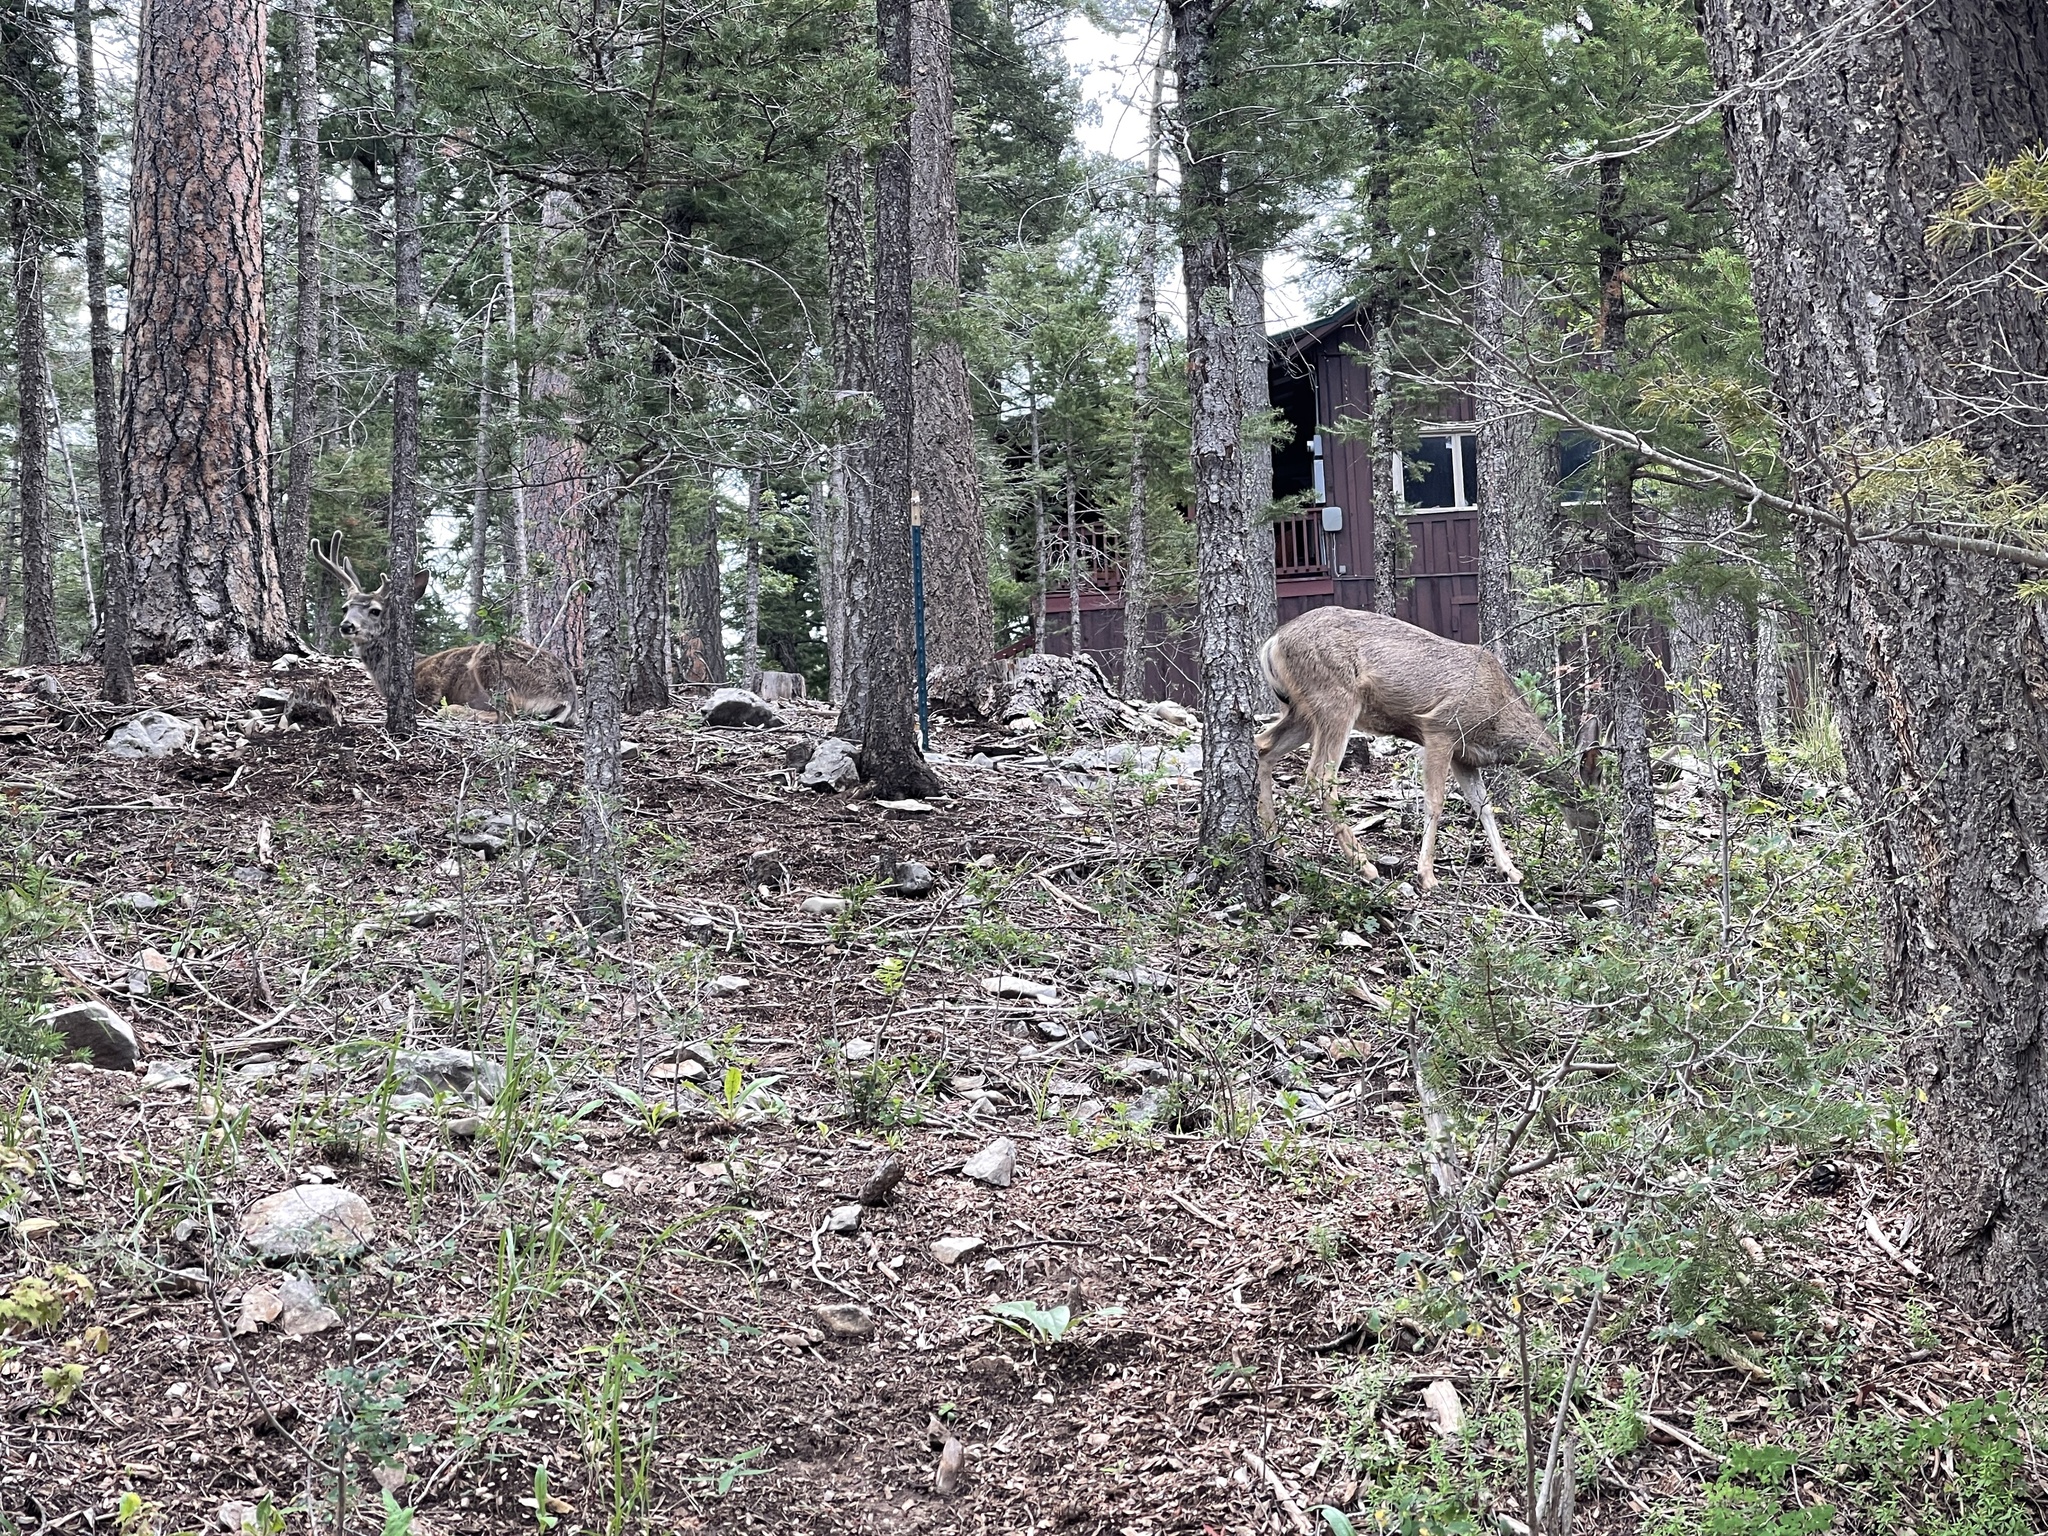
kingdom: Animalia
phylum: Chordata
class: Mammalia
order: Artiodactyla
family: Cervidae
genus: Odocoileus
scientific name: Odocoileus hemionus
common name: Mule deer
